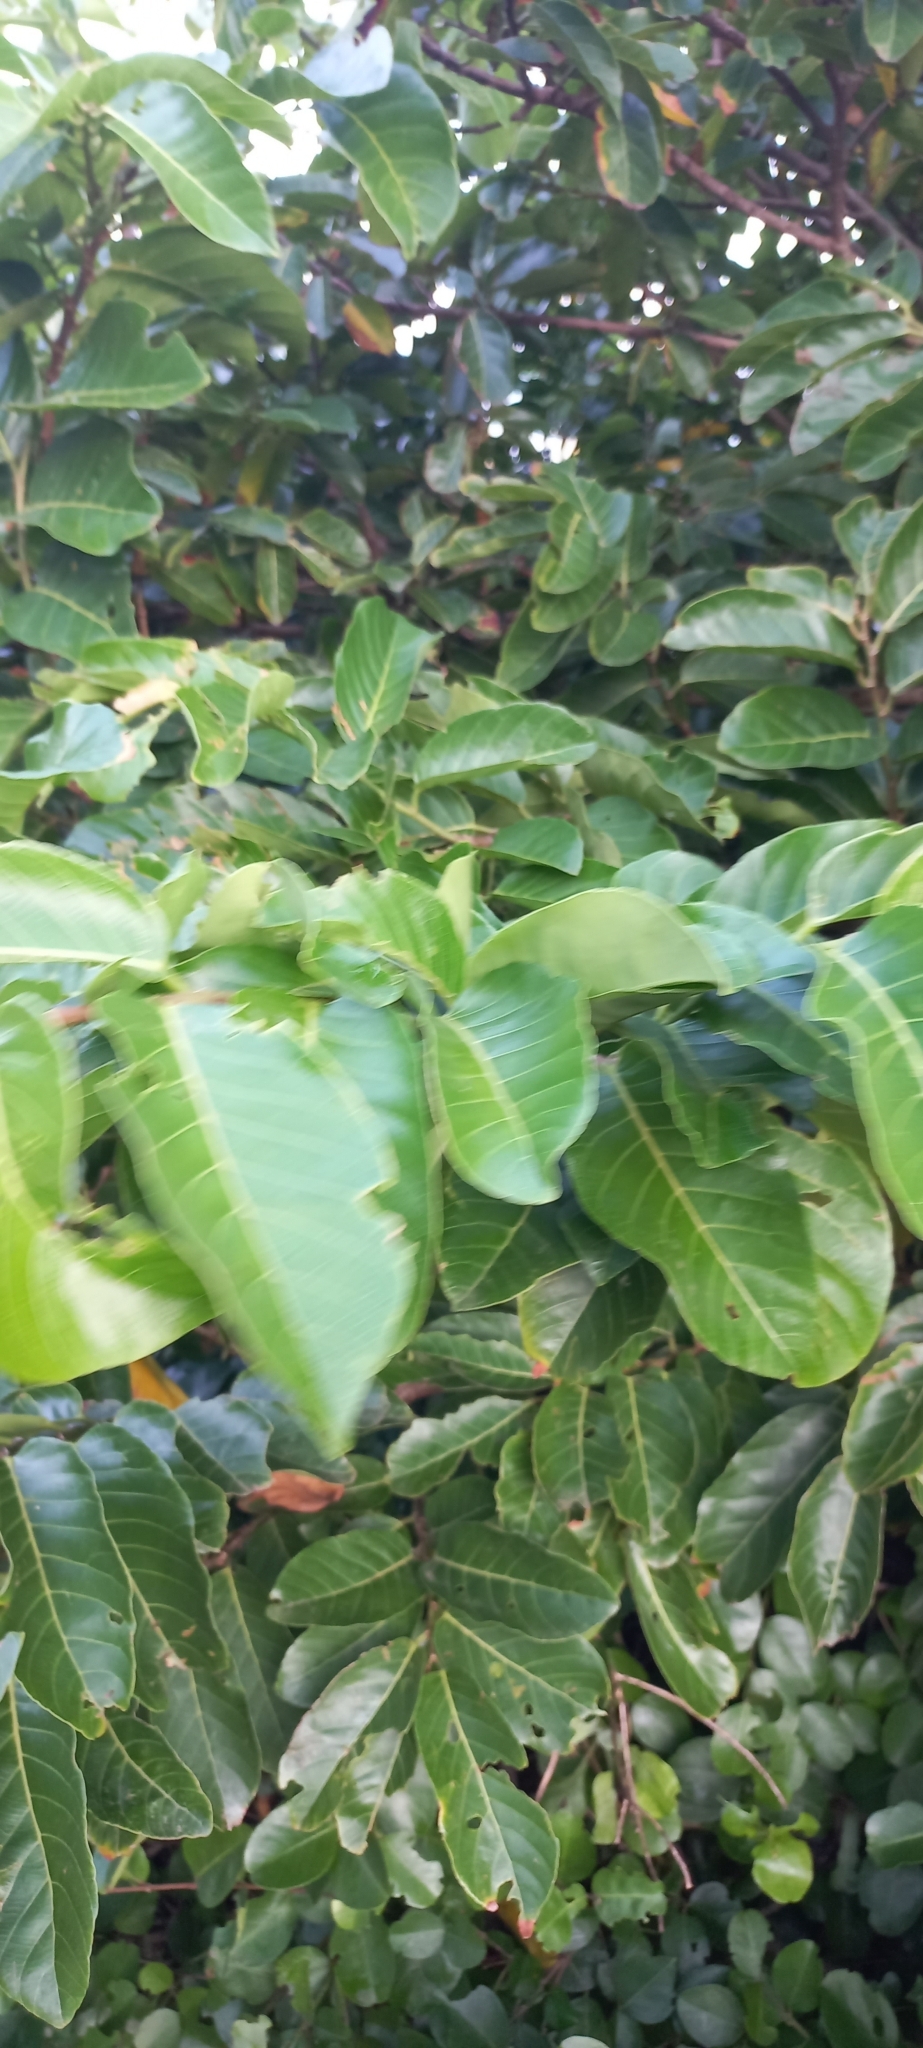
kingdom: Plantae
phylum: Tracheophyta
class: Magnoliopsida
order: Malpighiales
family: Phyllanthaceae
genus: Bridelia
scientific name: Bridelia micrantha
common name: Bridelia
